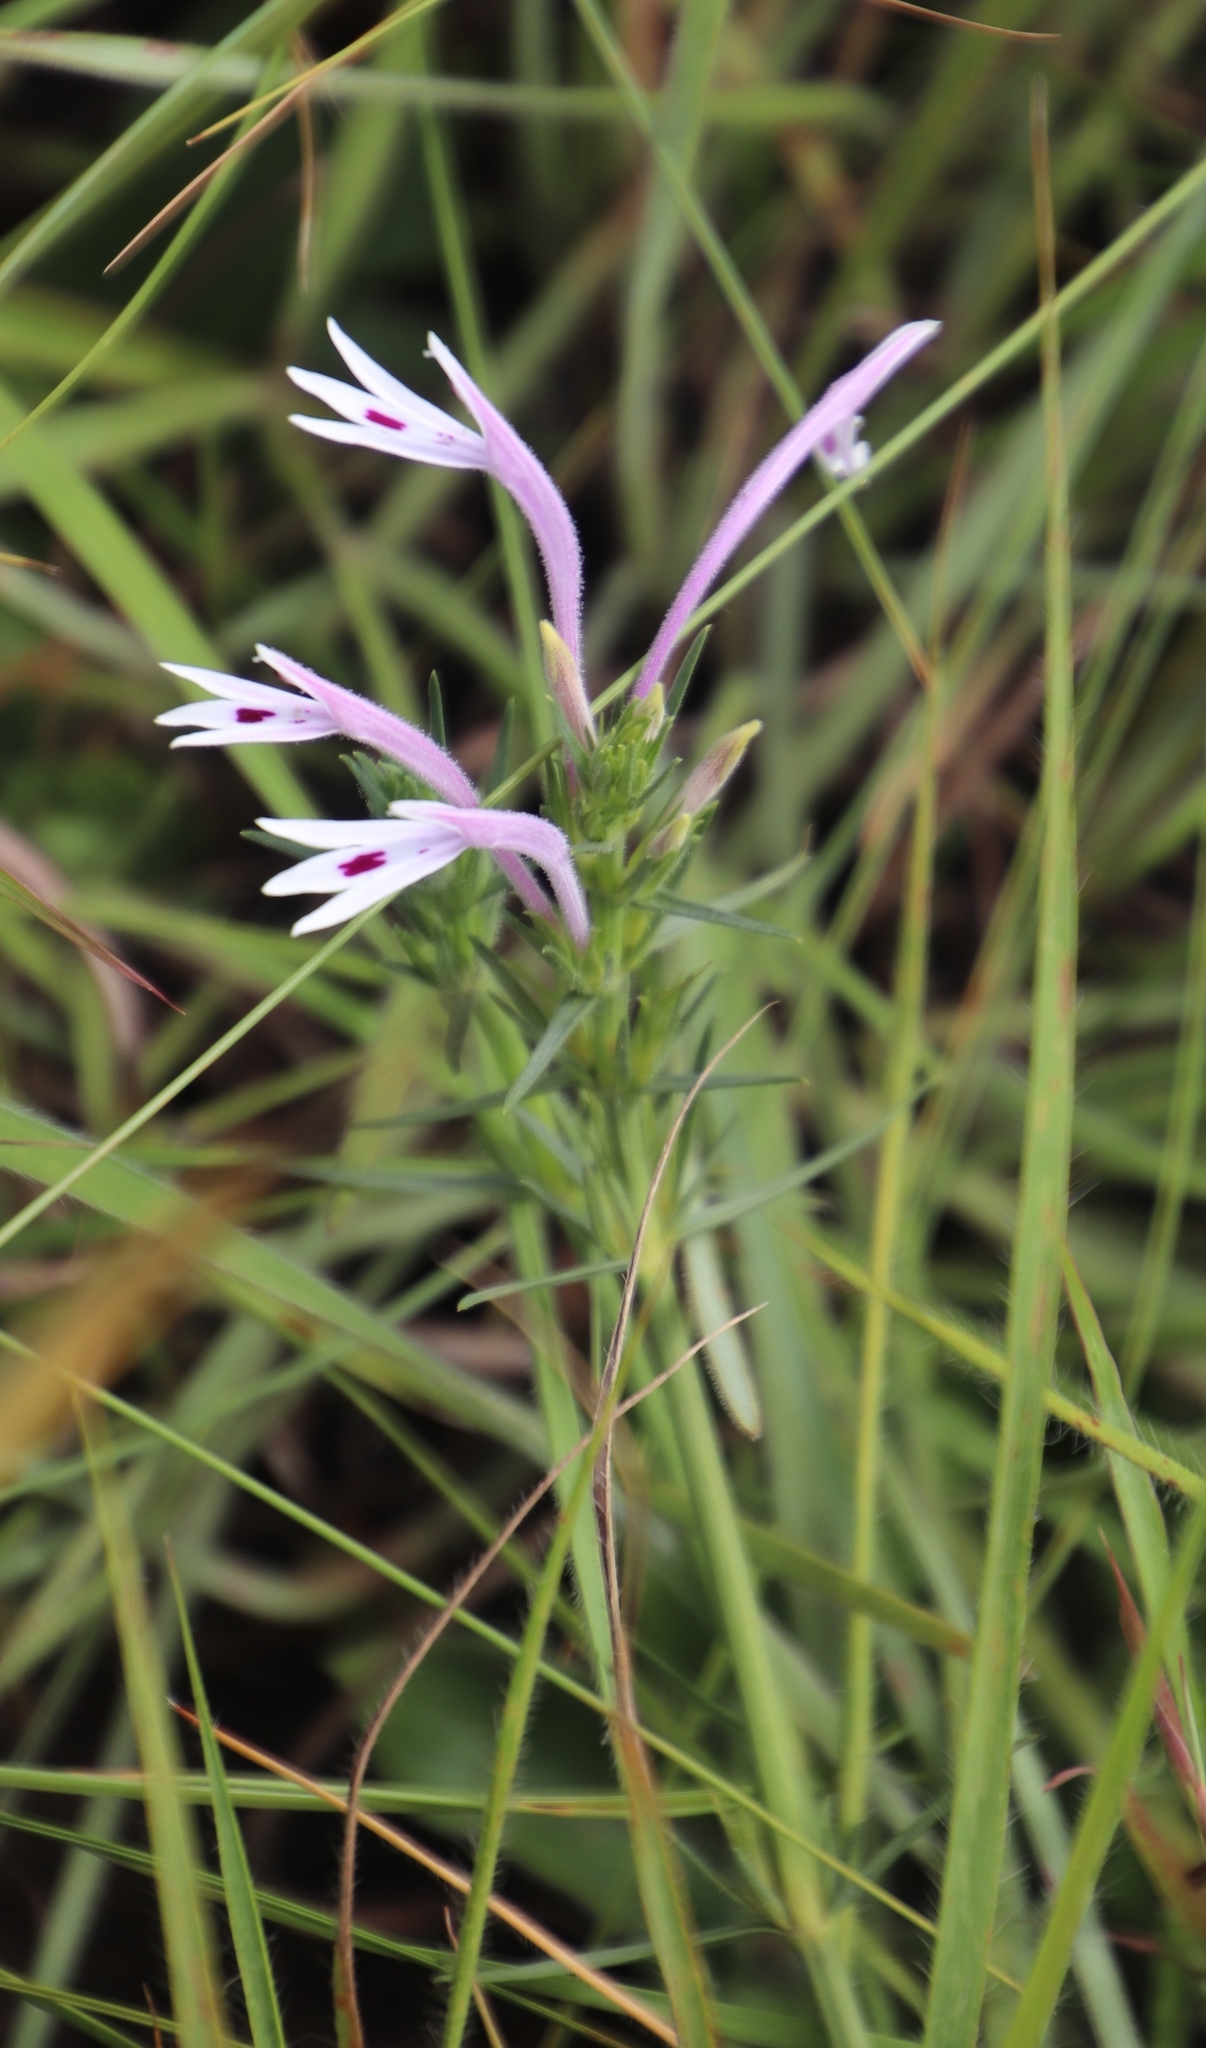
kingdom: Plantae
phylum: Tracheophyta
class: Magnoliopsida
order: Lamiales
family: Acanthaceae
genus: Justicia
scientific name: Justicia linifolia
